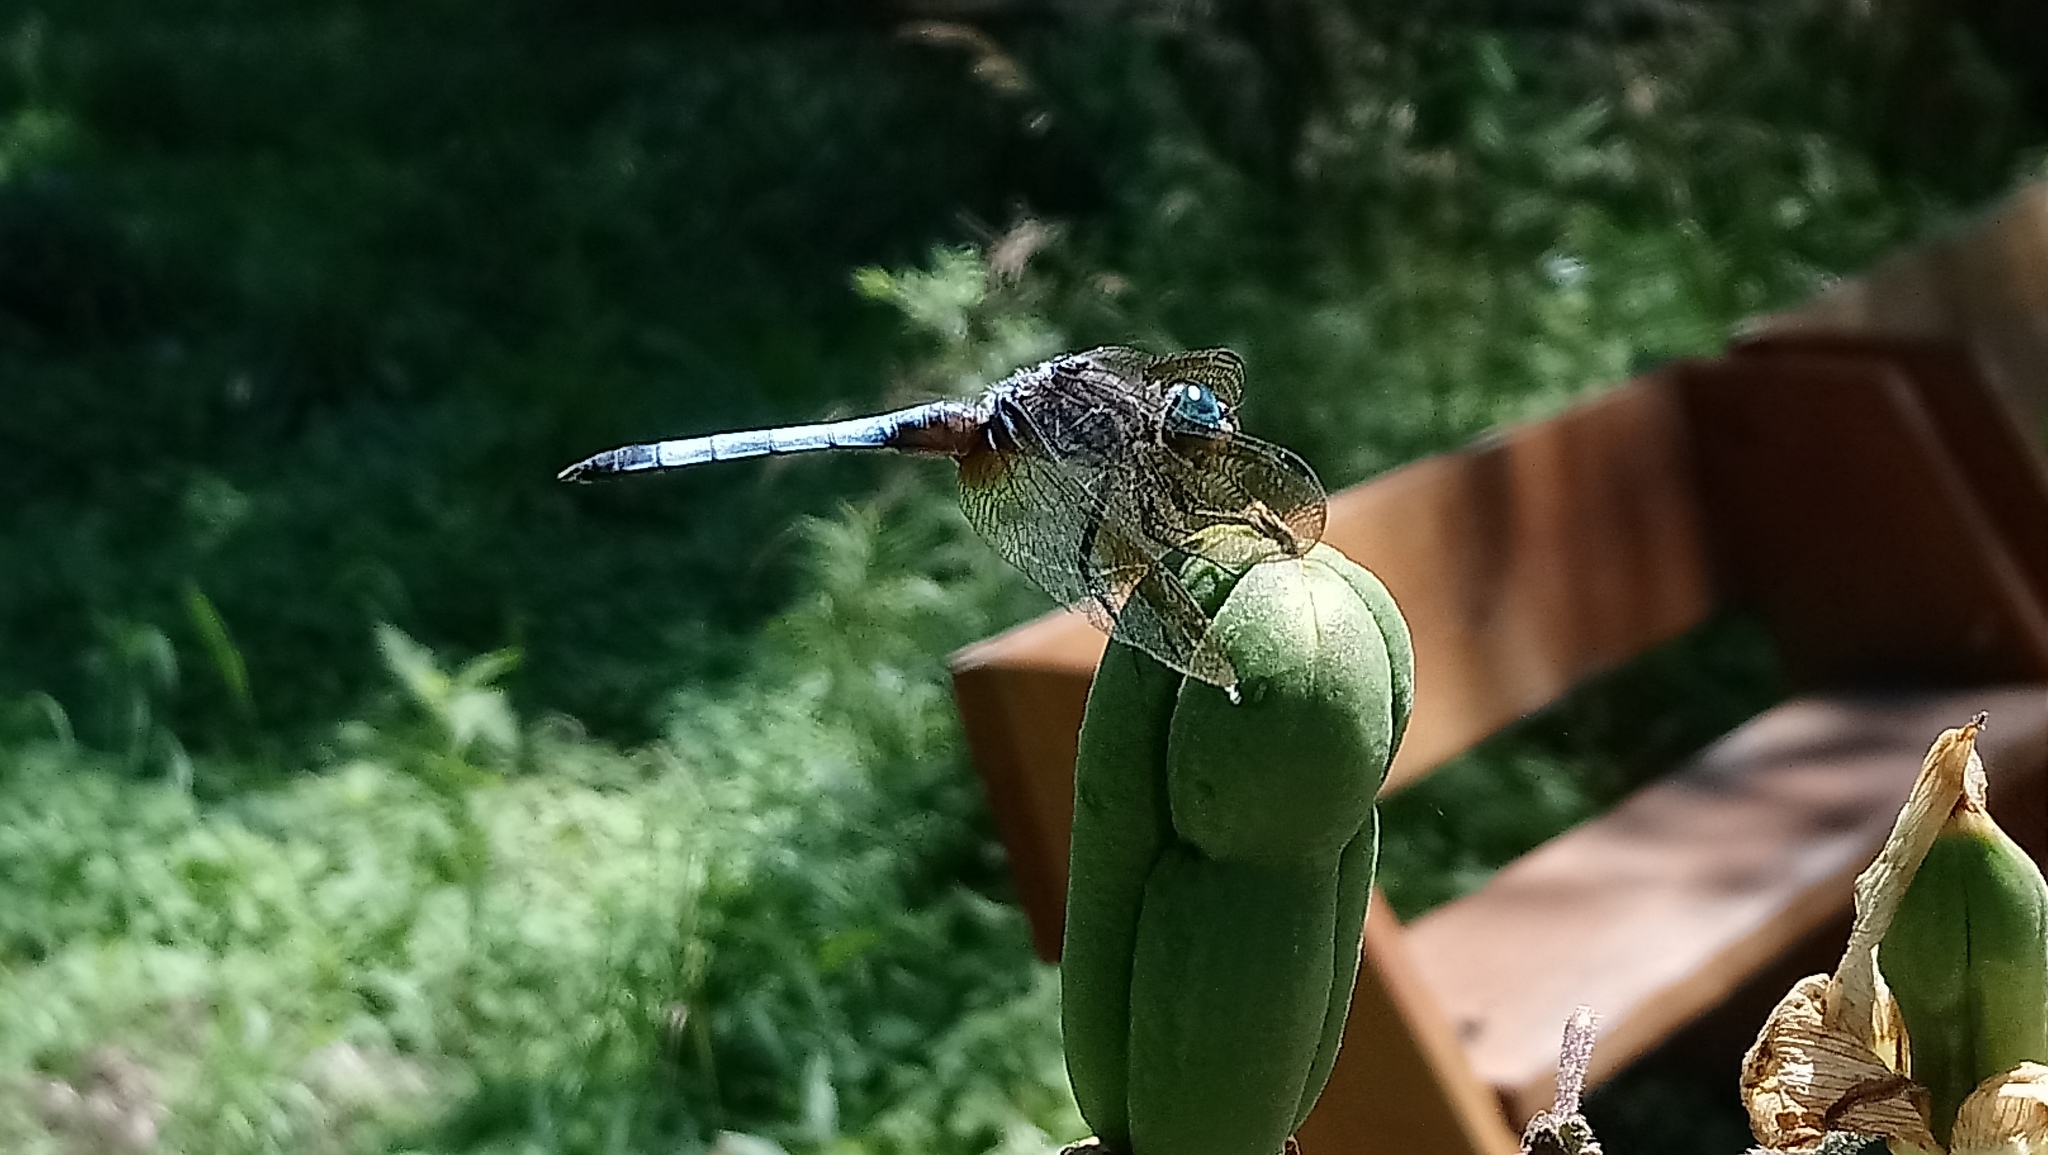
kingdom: Animalia
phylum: Arthropoda
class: Insecta
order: Odonata
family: Libellulidae
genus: Pachydiplax
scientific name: Pachydiplax longipennis
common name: Blue dasher
